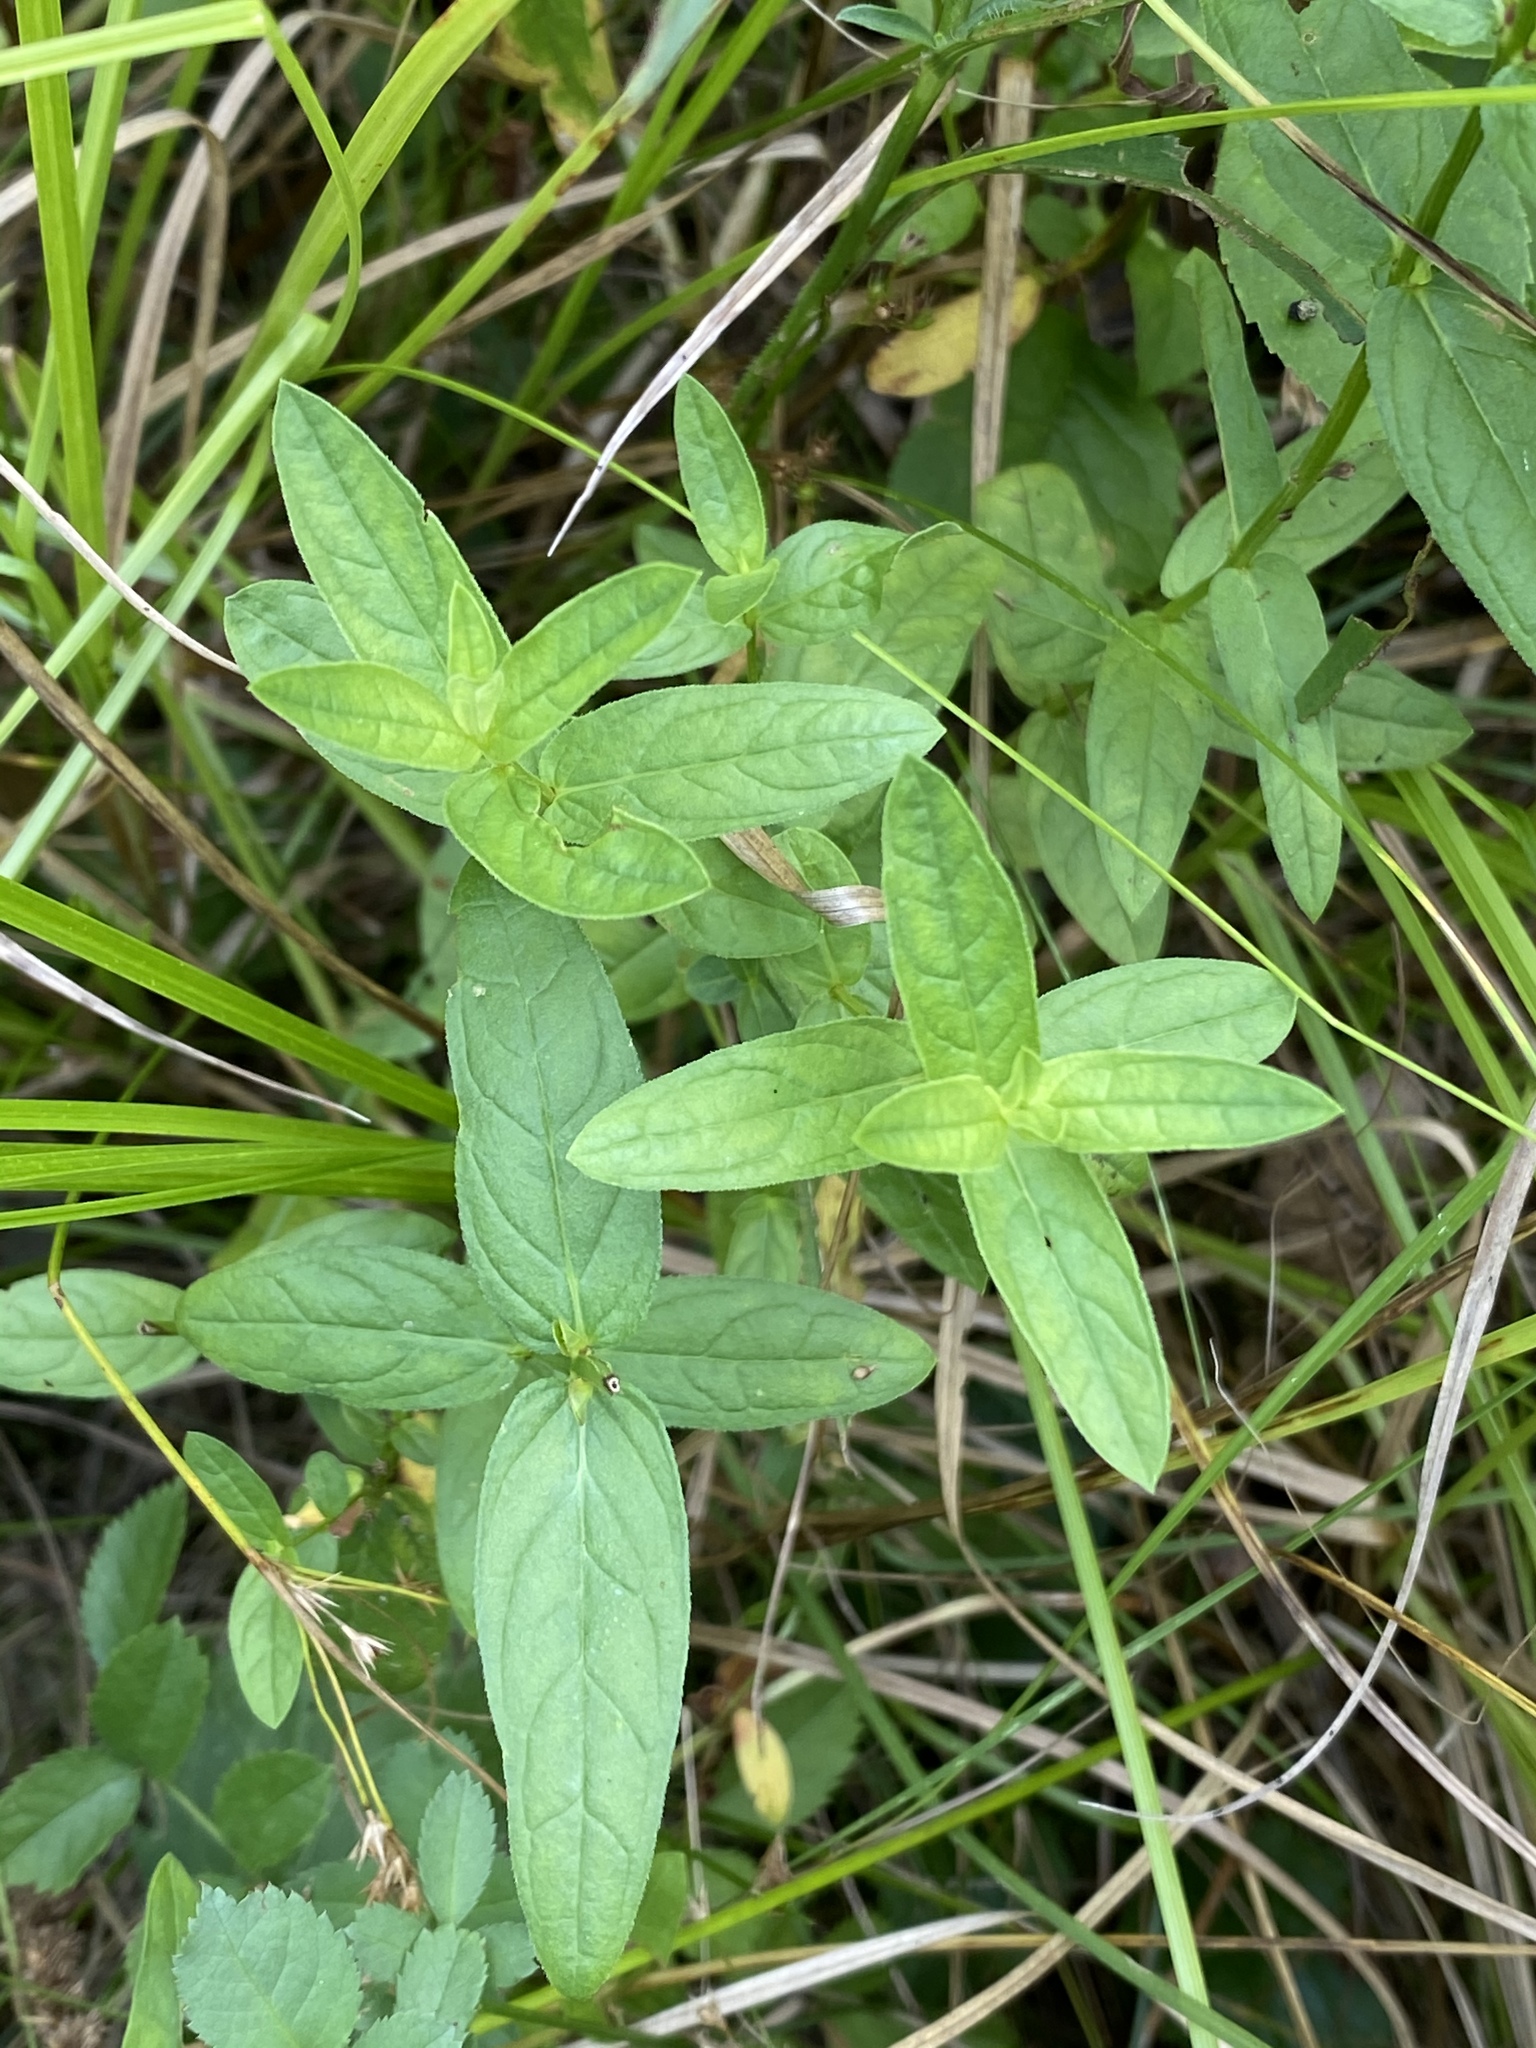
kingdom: Plantae
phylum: Tracheophyta
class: Magnoliopsida
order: Myrtales
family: Lythraceae
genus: Lythrum
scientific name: Lythrum salicaria
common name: Purple loosestrife
